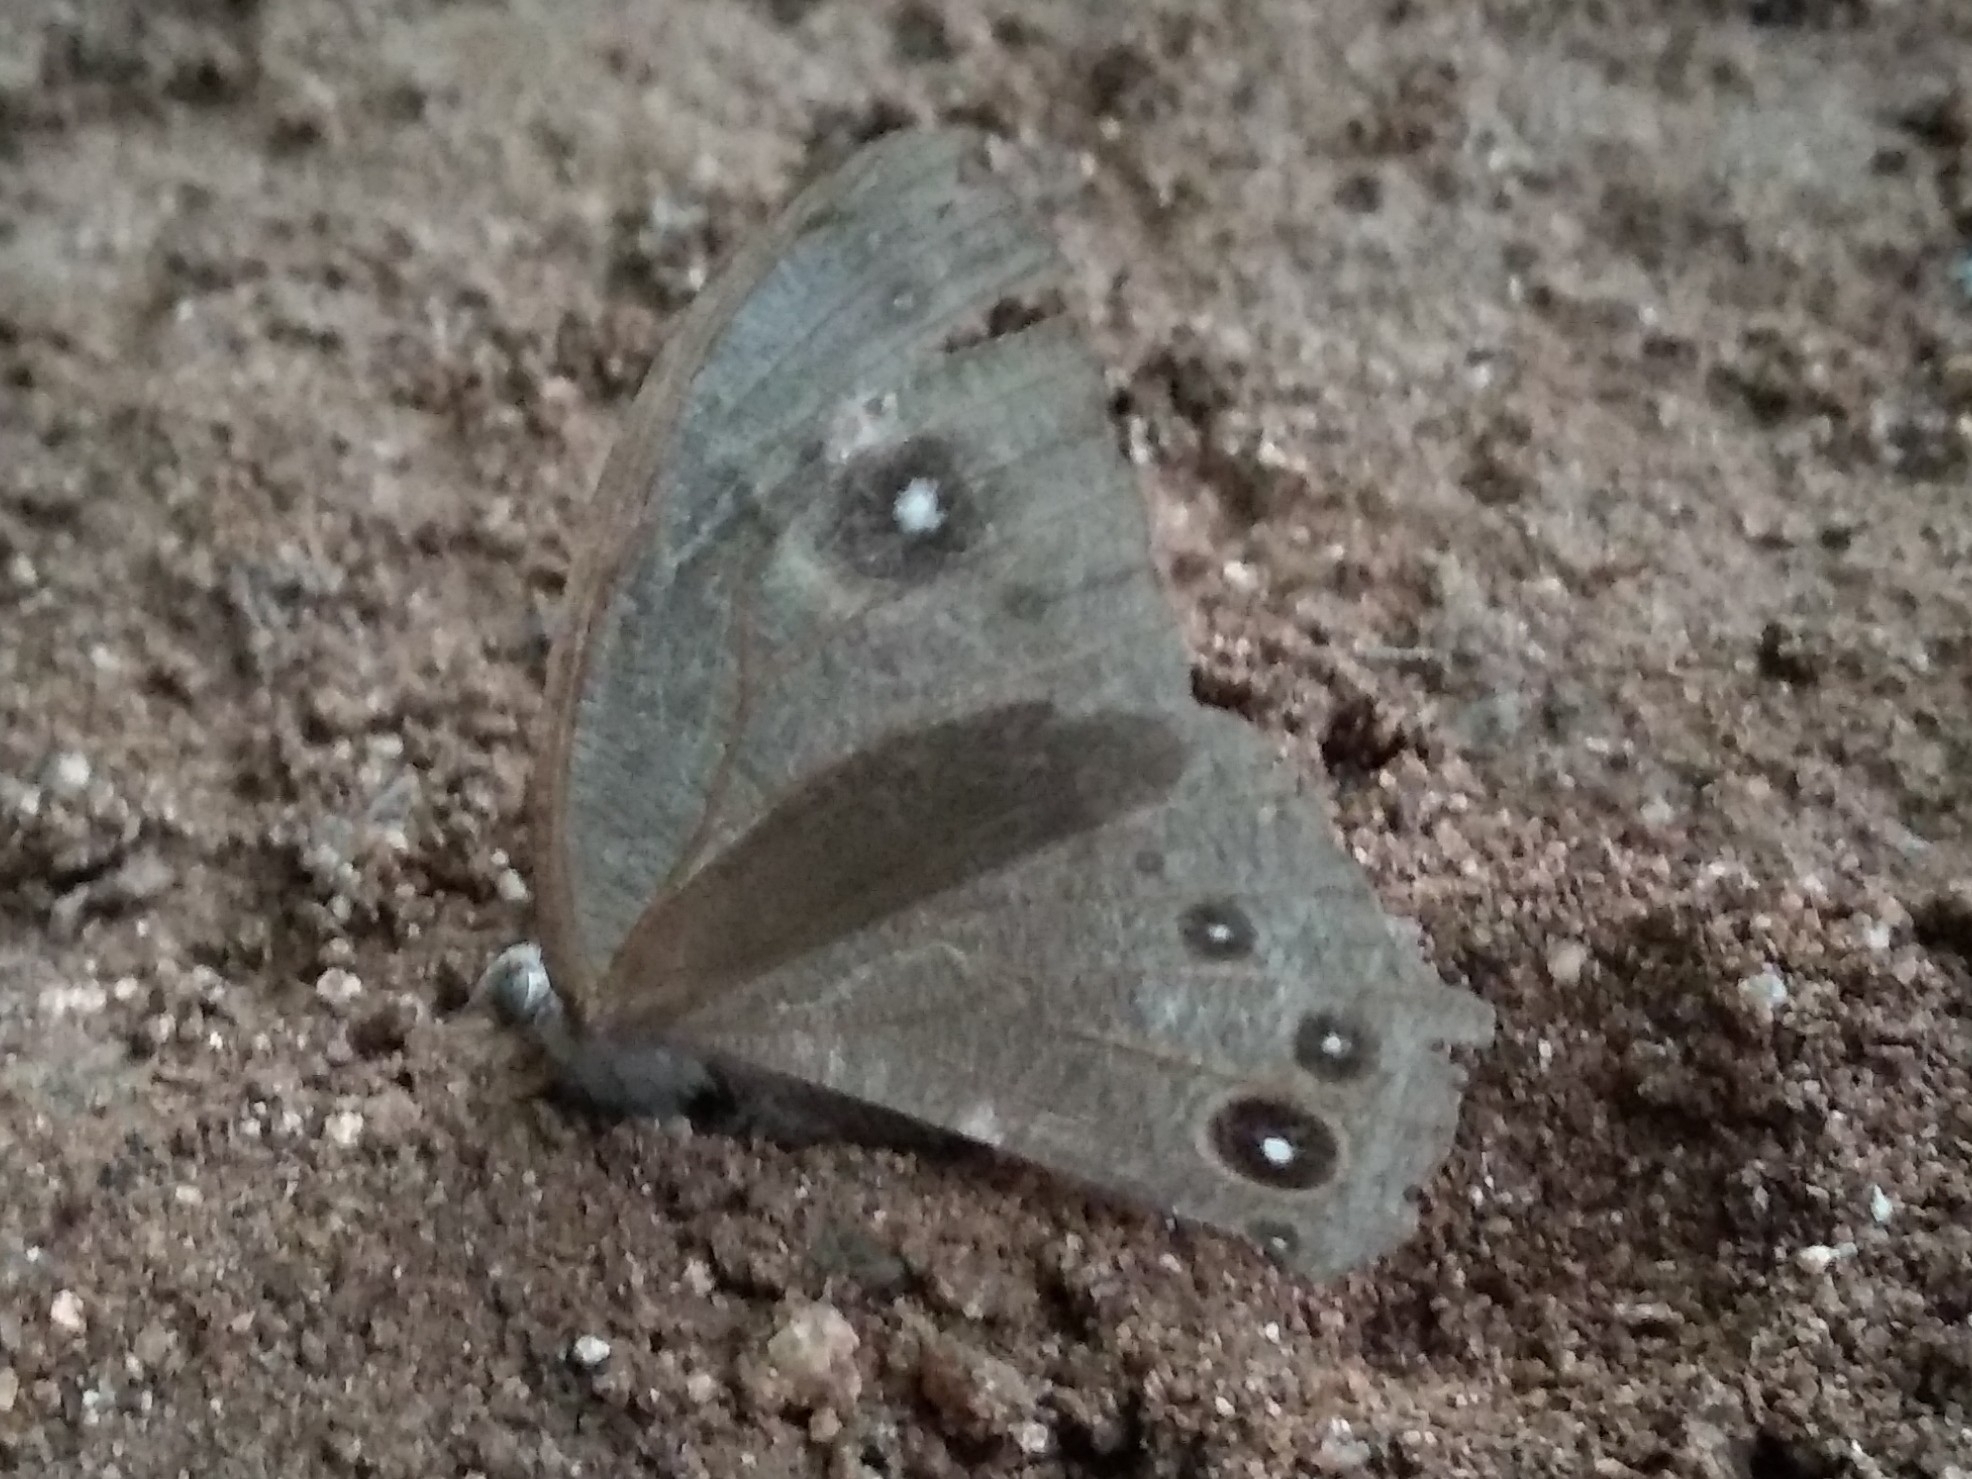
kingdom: Animalia
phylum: Arthropoda
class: Insecta
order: Lepidoptera
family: Nymphalidae
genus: Melanitis
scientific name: Melanitis leda
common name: Twilight brown
